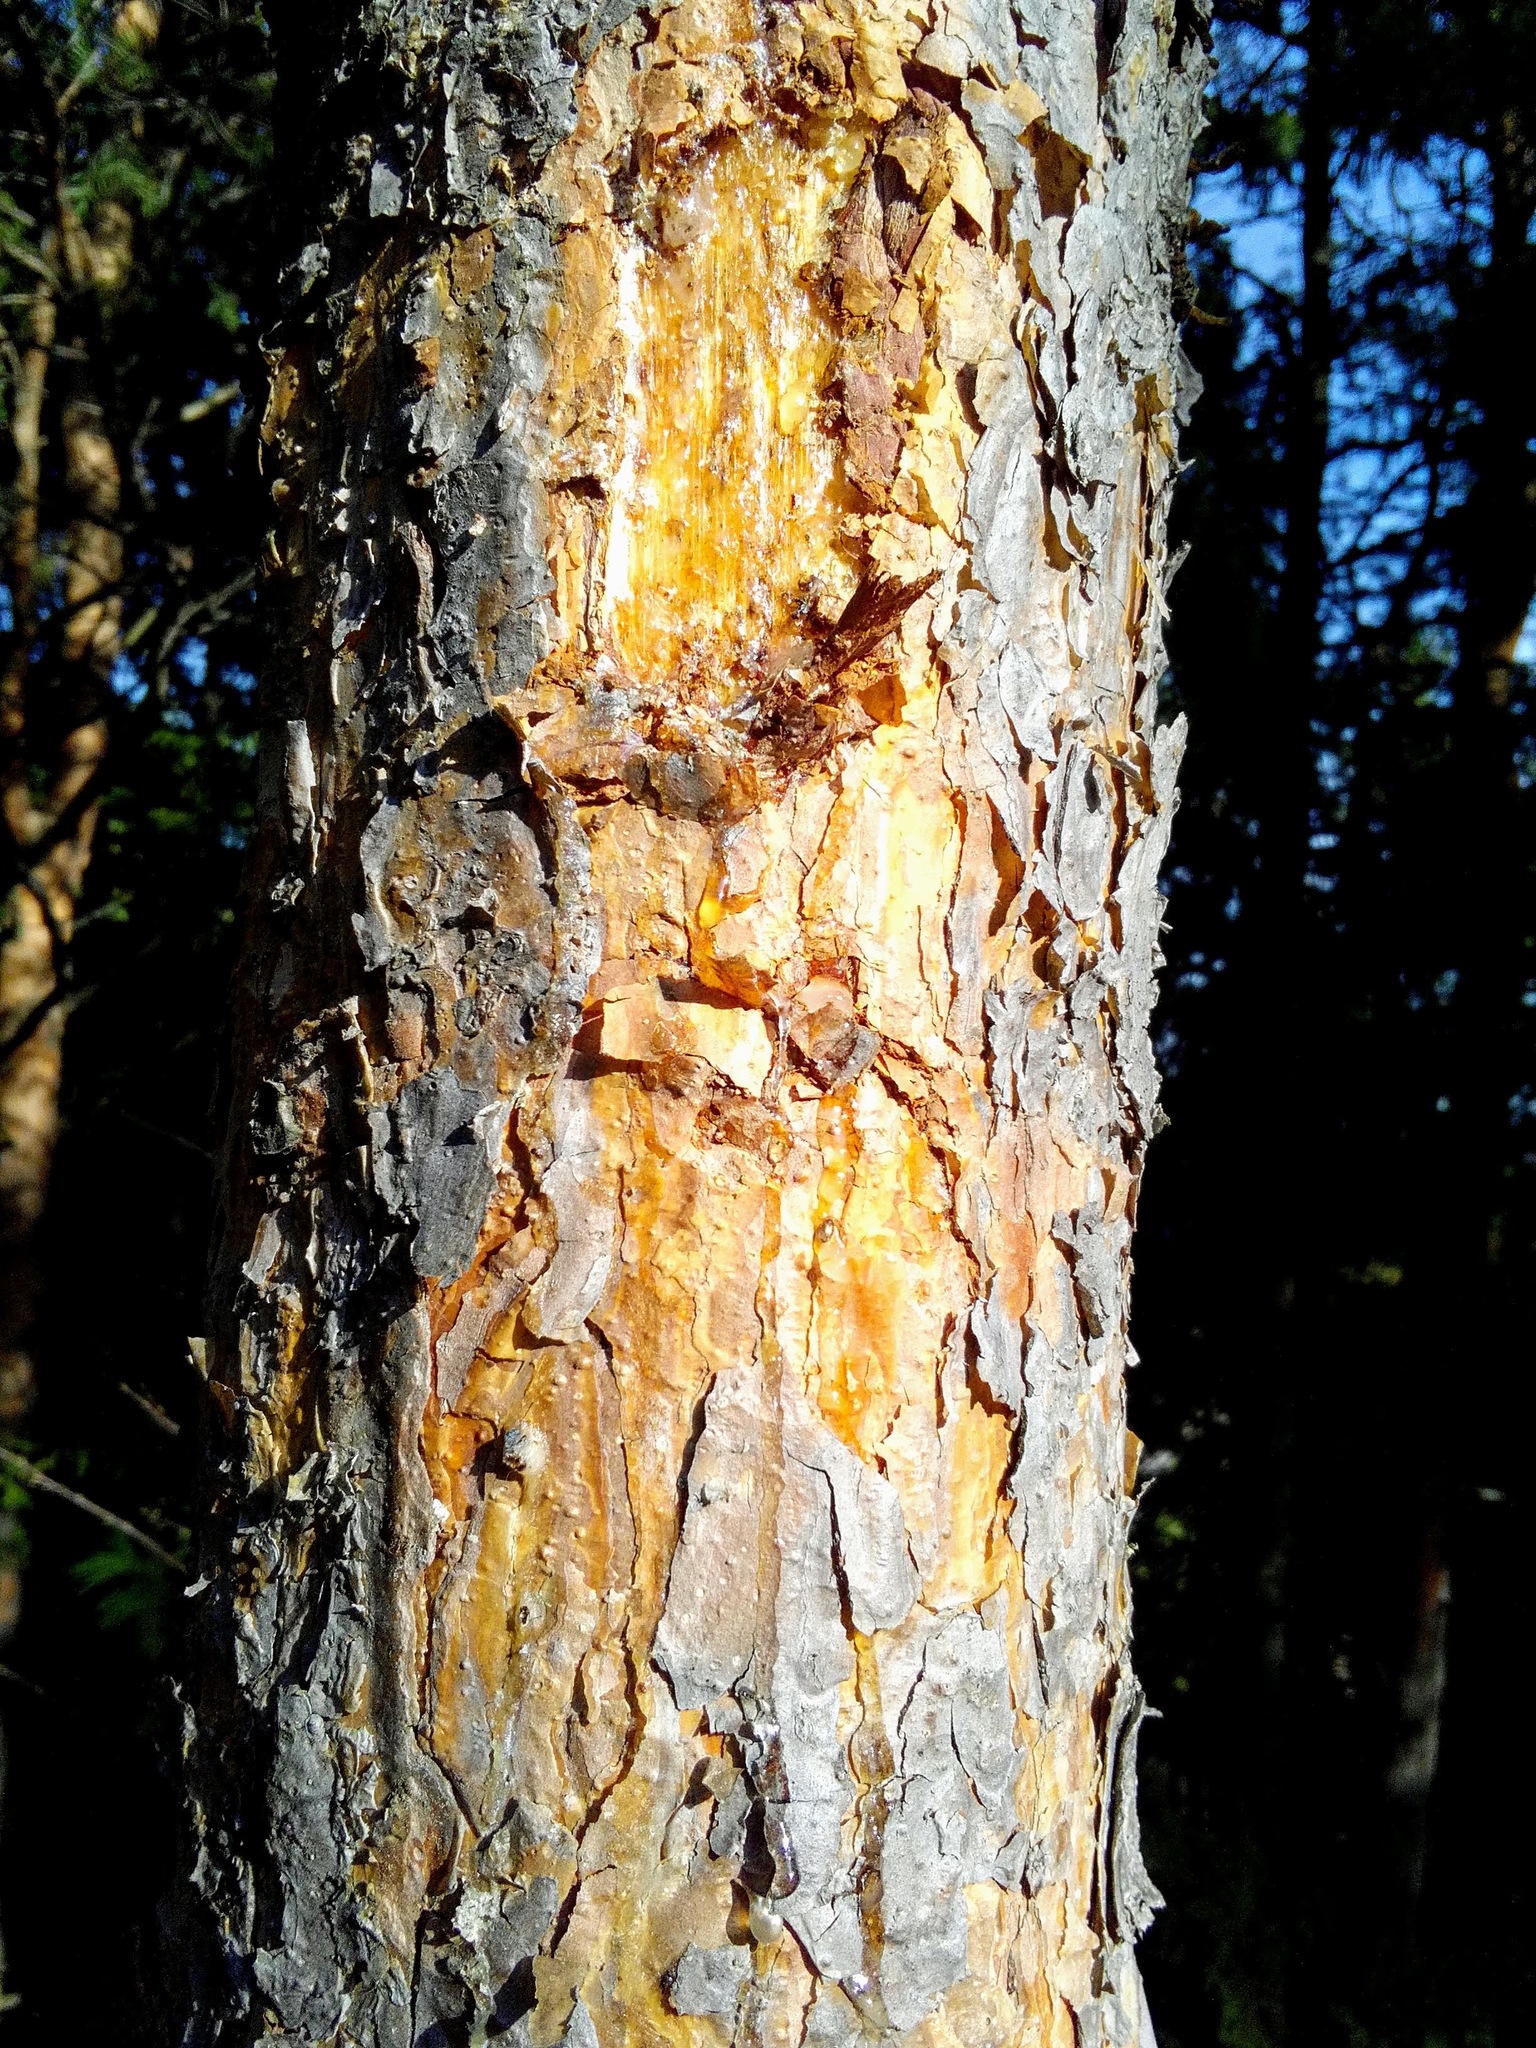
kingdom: Plantae
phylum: Tracheophyta
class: Pinopsida
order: Pinales
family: Pinaceae
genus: Pinus
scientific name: Pinus sylvestris
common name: Scots pine
